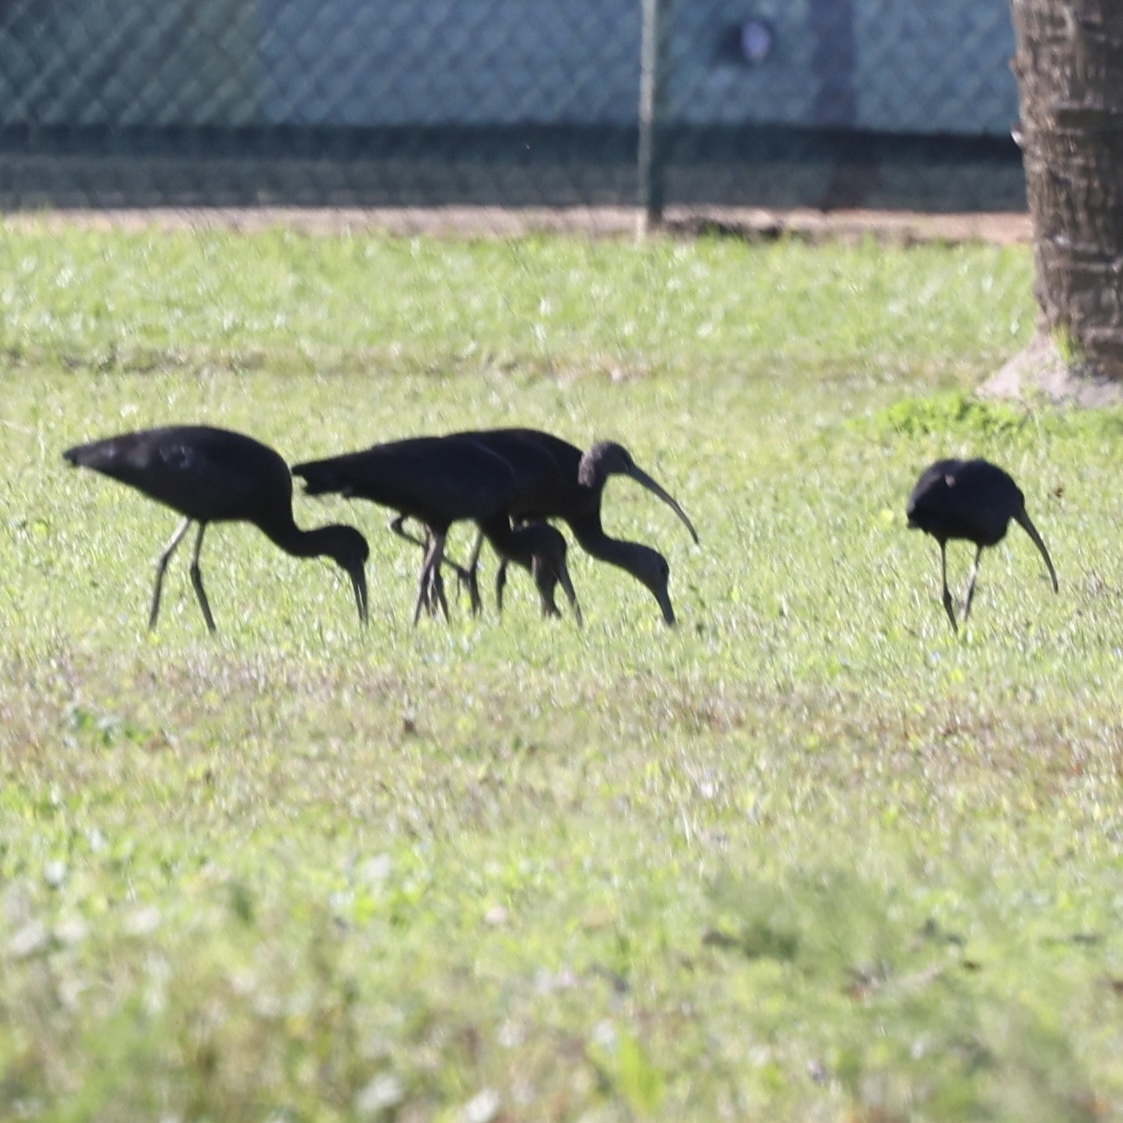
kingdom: Animalia
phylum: Chordata
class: Aves
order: Pelecaniformes
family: Threskiornithidae
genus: Plegadis
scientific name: Plegadis falcinellus
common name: Glossy ibis
